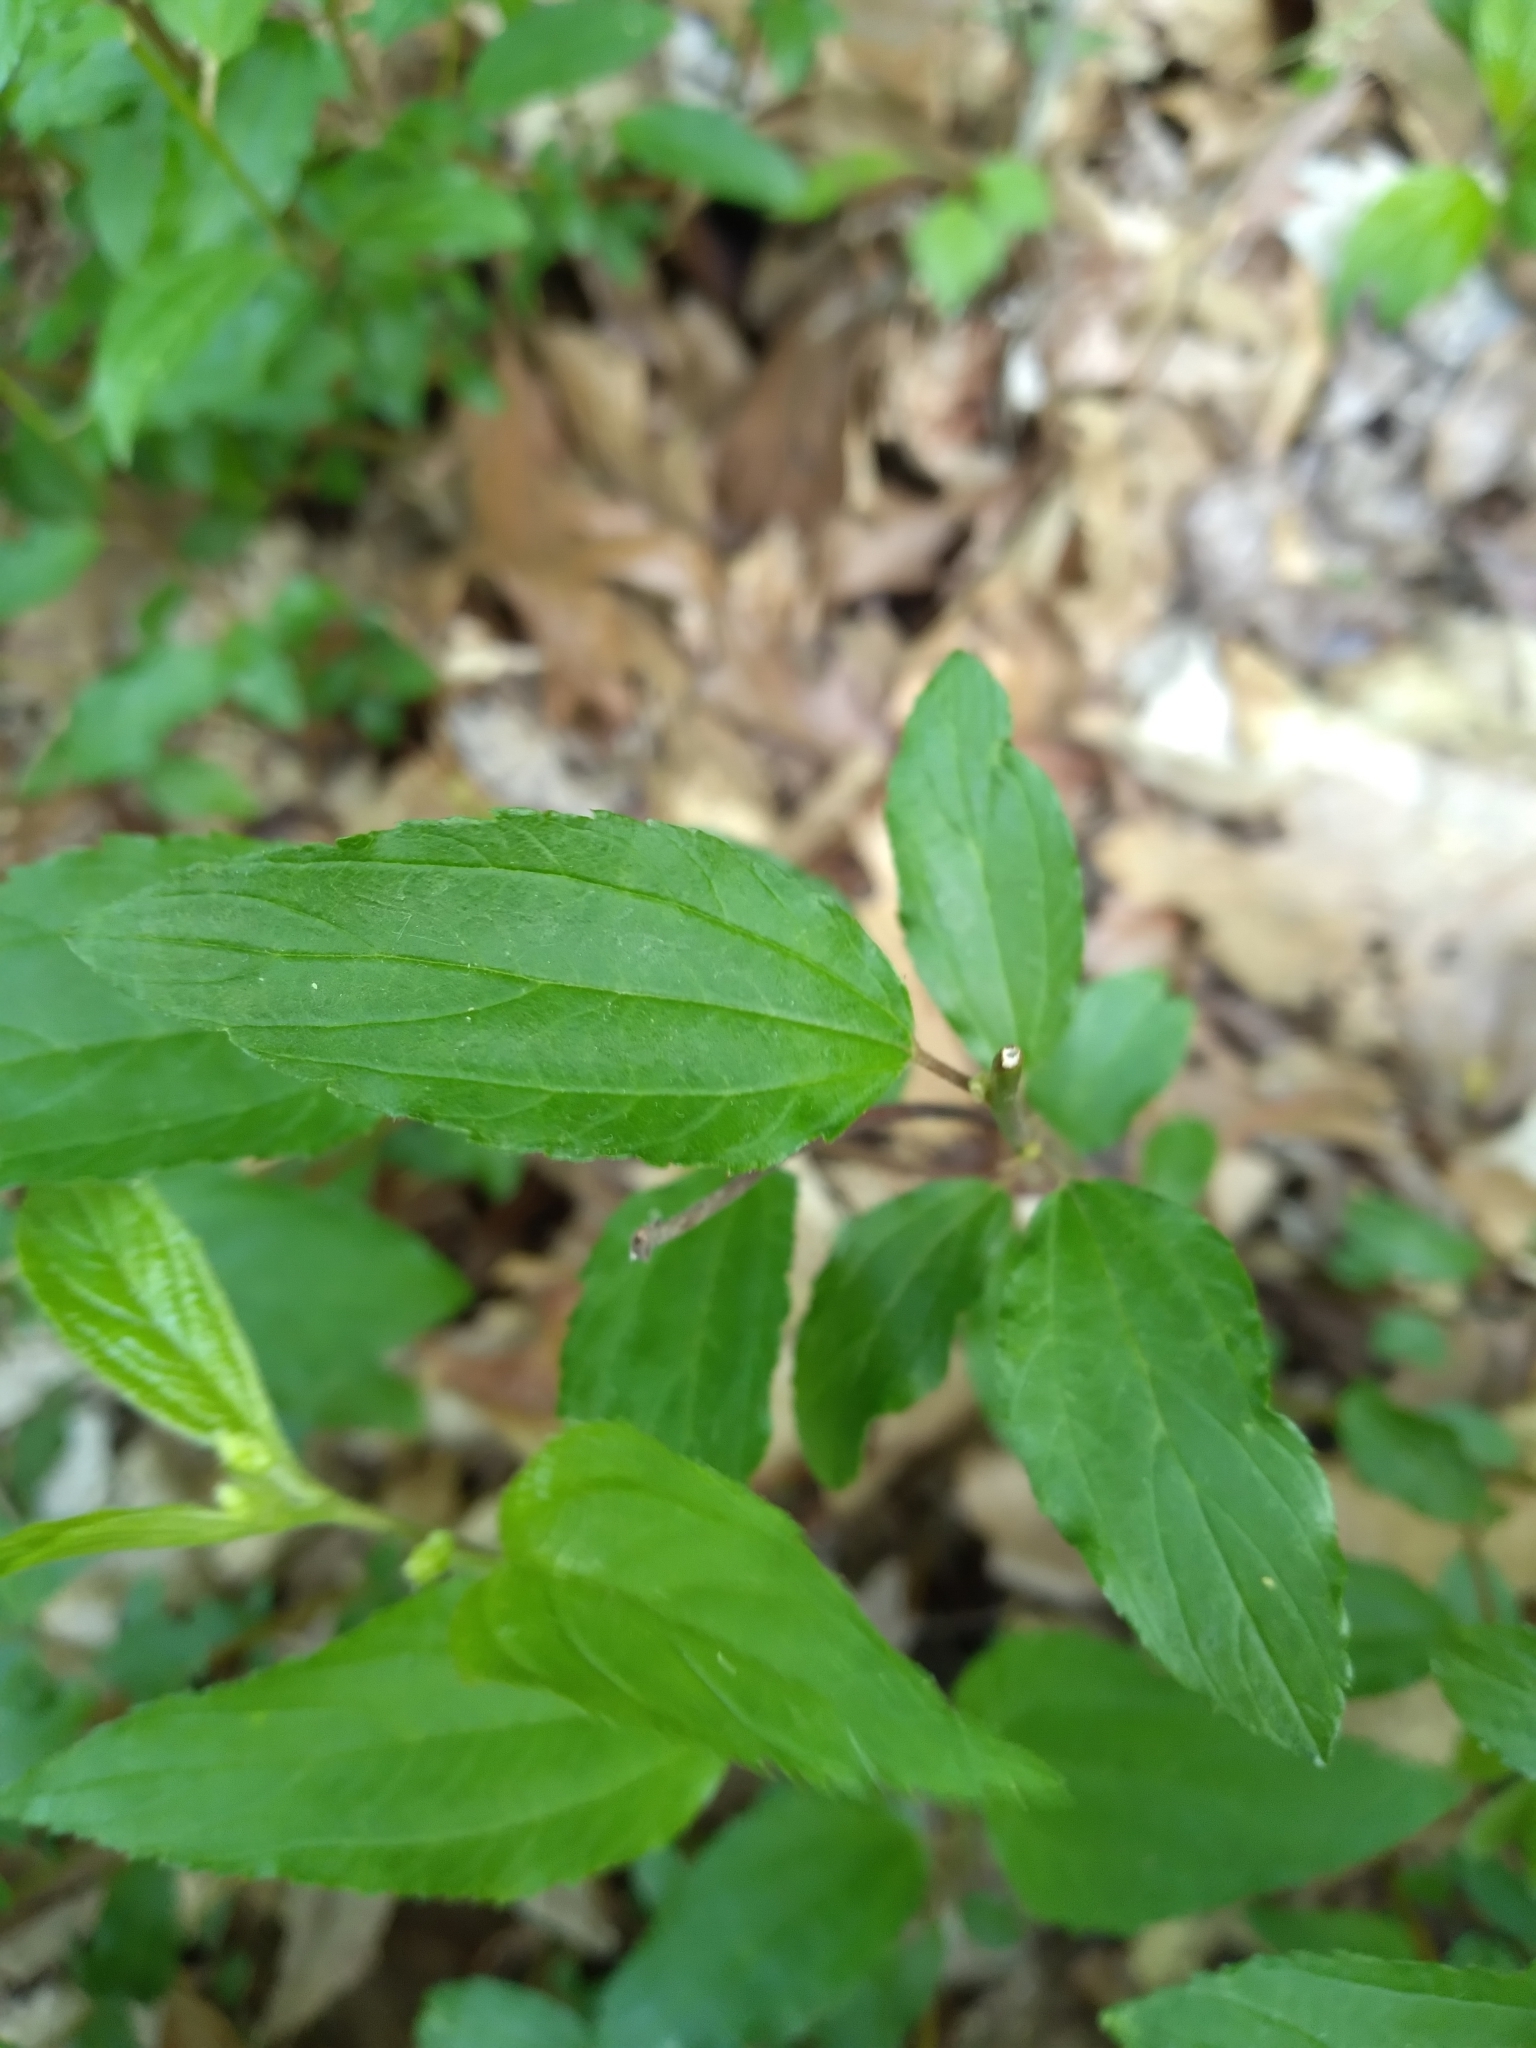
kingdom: Plantae
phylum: Tracheophyta
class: Magnoliopsida
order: Rosales
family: Rhamnaceae
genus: Ceanothus
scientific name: Ceanothus americanus
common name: Redroot
